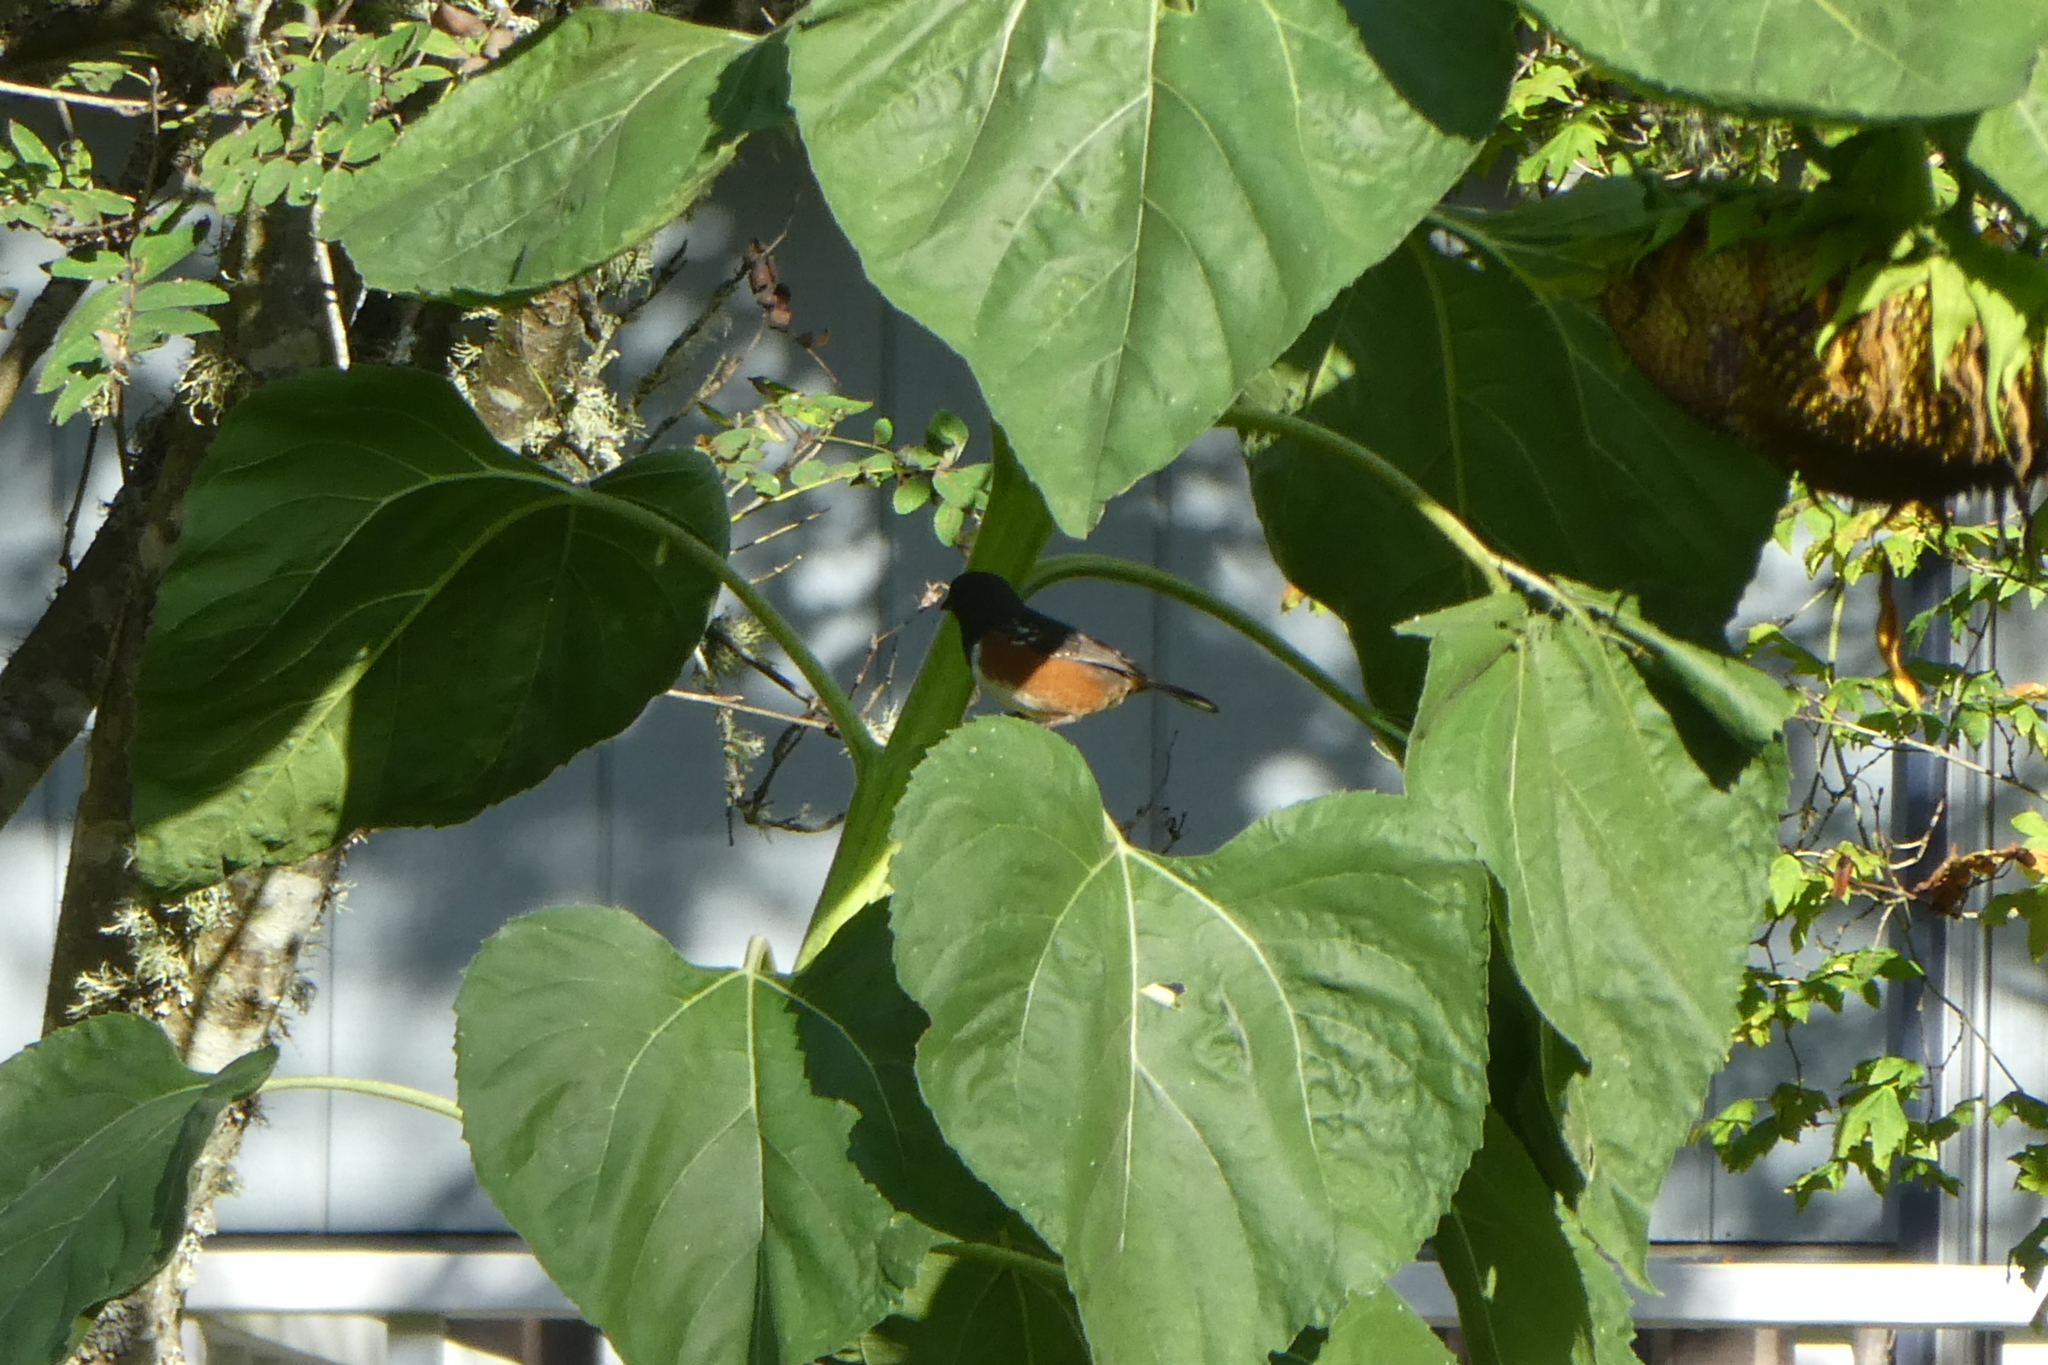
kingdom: Animalia
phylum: Chordata
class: Aves
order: Passeriformes
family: Passerellidae
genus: Pipilo
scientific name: Pipilo maculatus
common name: Spotted towhee
